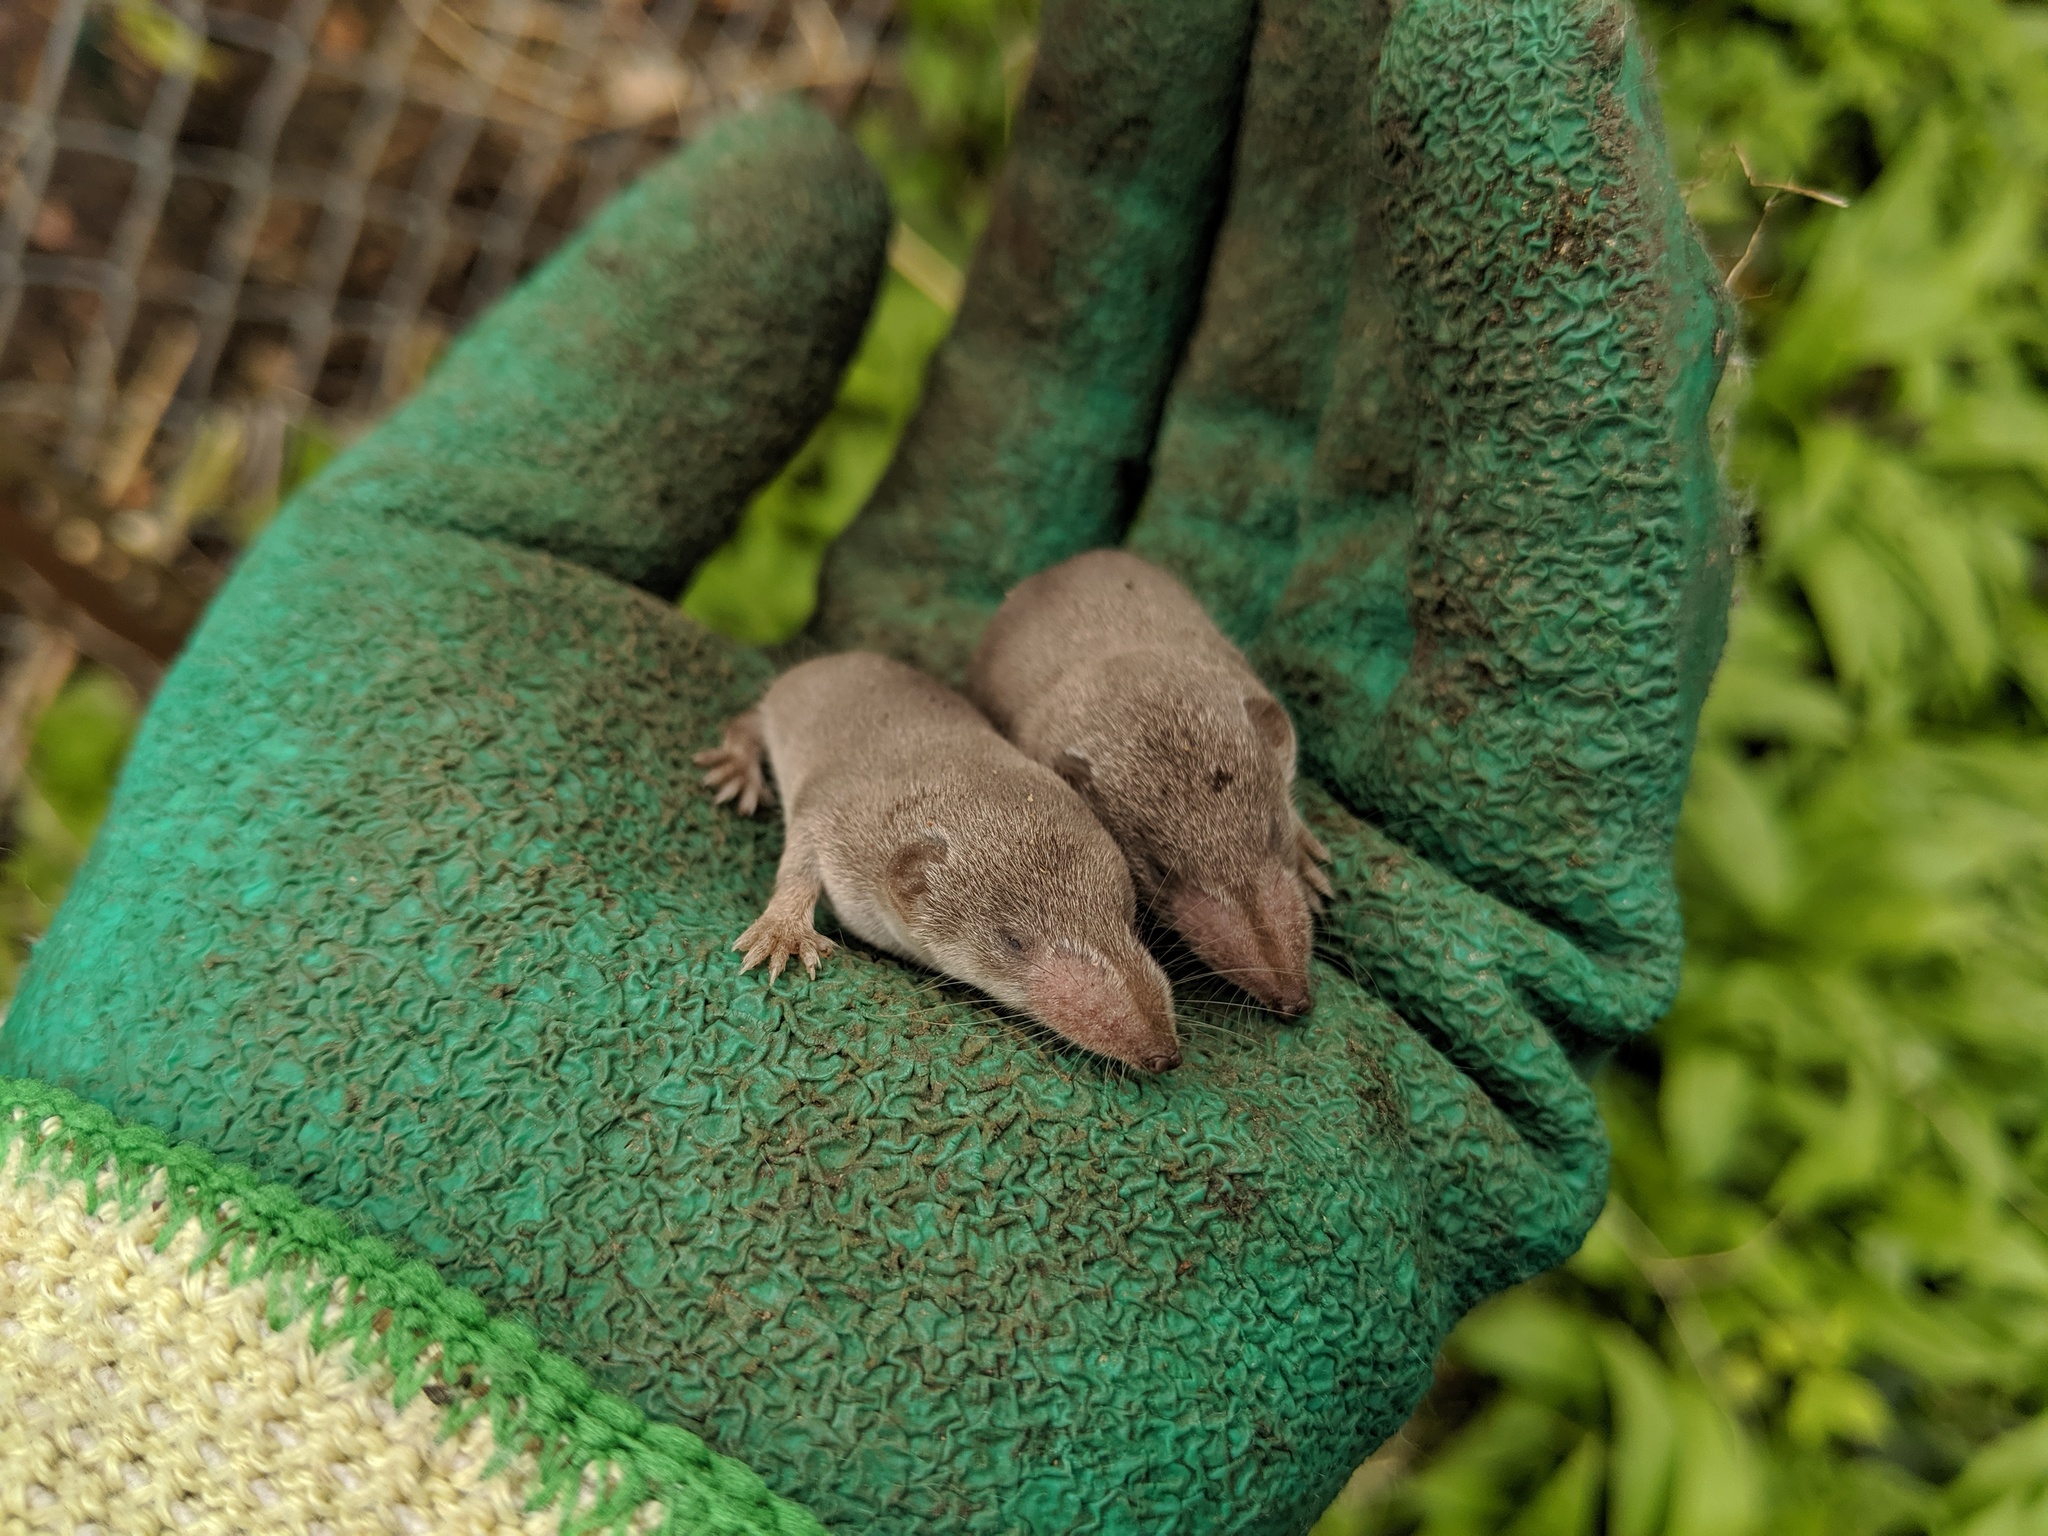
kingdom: Animalia
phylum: Chordata
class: Mammalia
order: Soricomorpha
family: Soricidae
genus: Crocidura
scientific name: Crocidura
